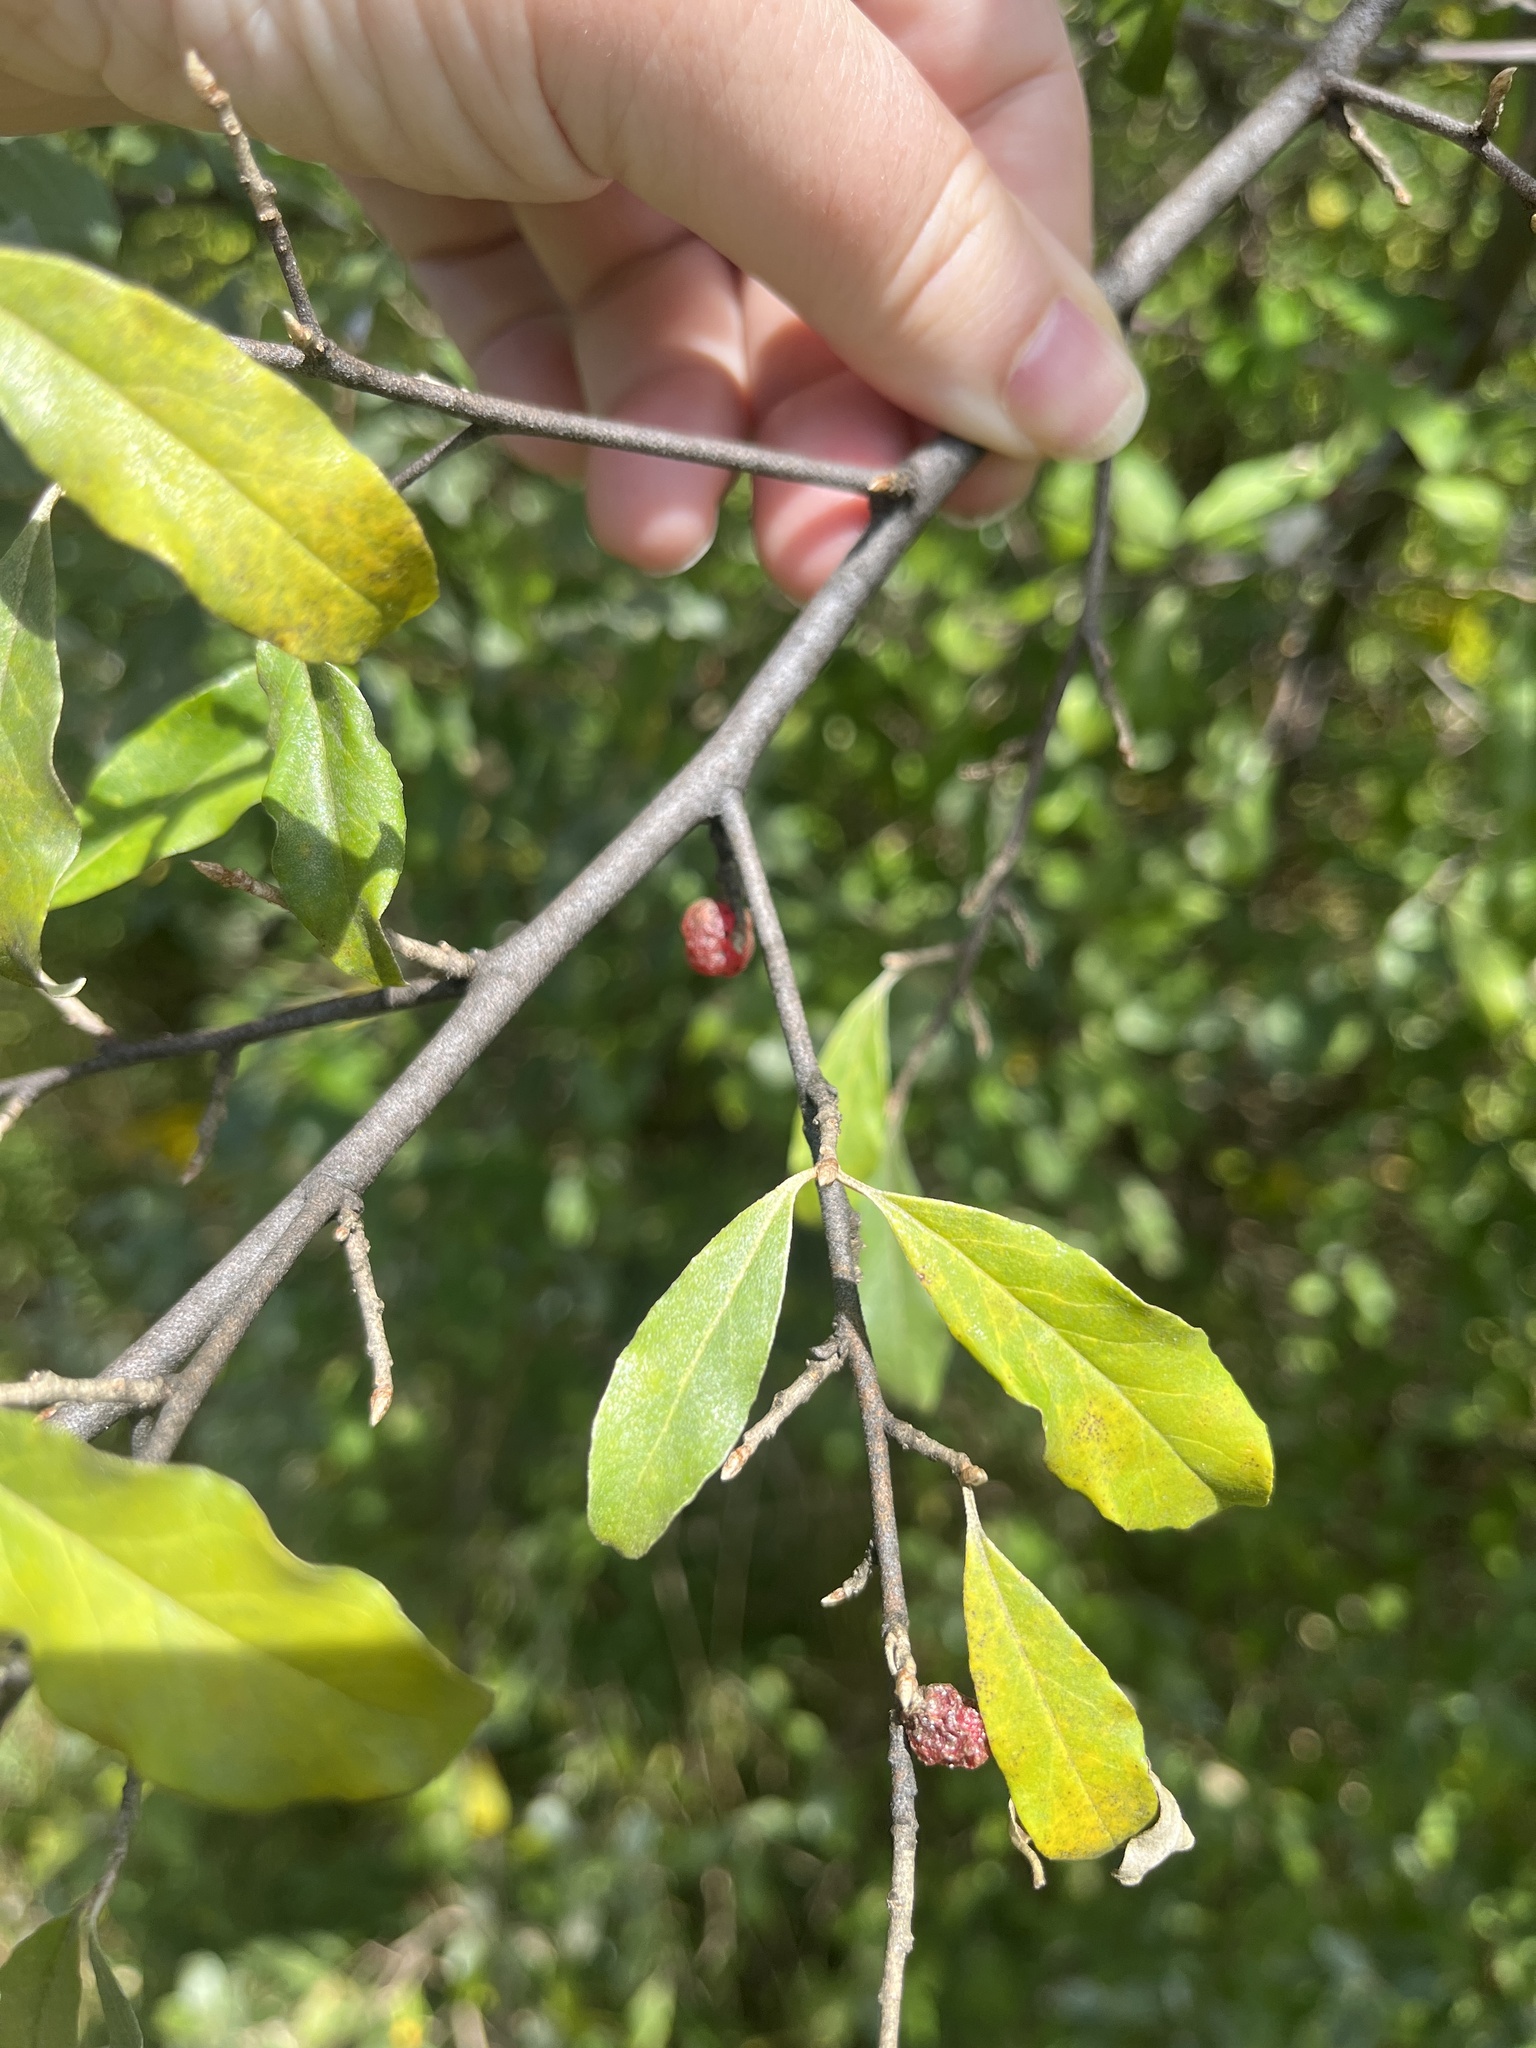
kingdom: Plantae
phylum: Tracheophyta
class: Magnoliopsida
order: Rosales
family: Elaeagnaceae
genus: Elaeagnus
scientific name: Elaeagnus umbellata
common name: Autumn olive
